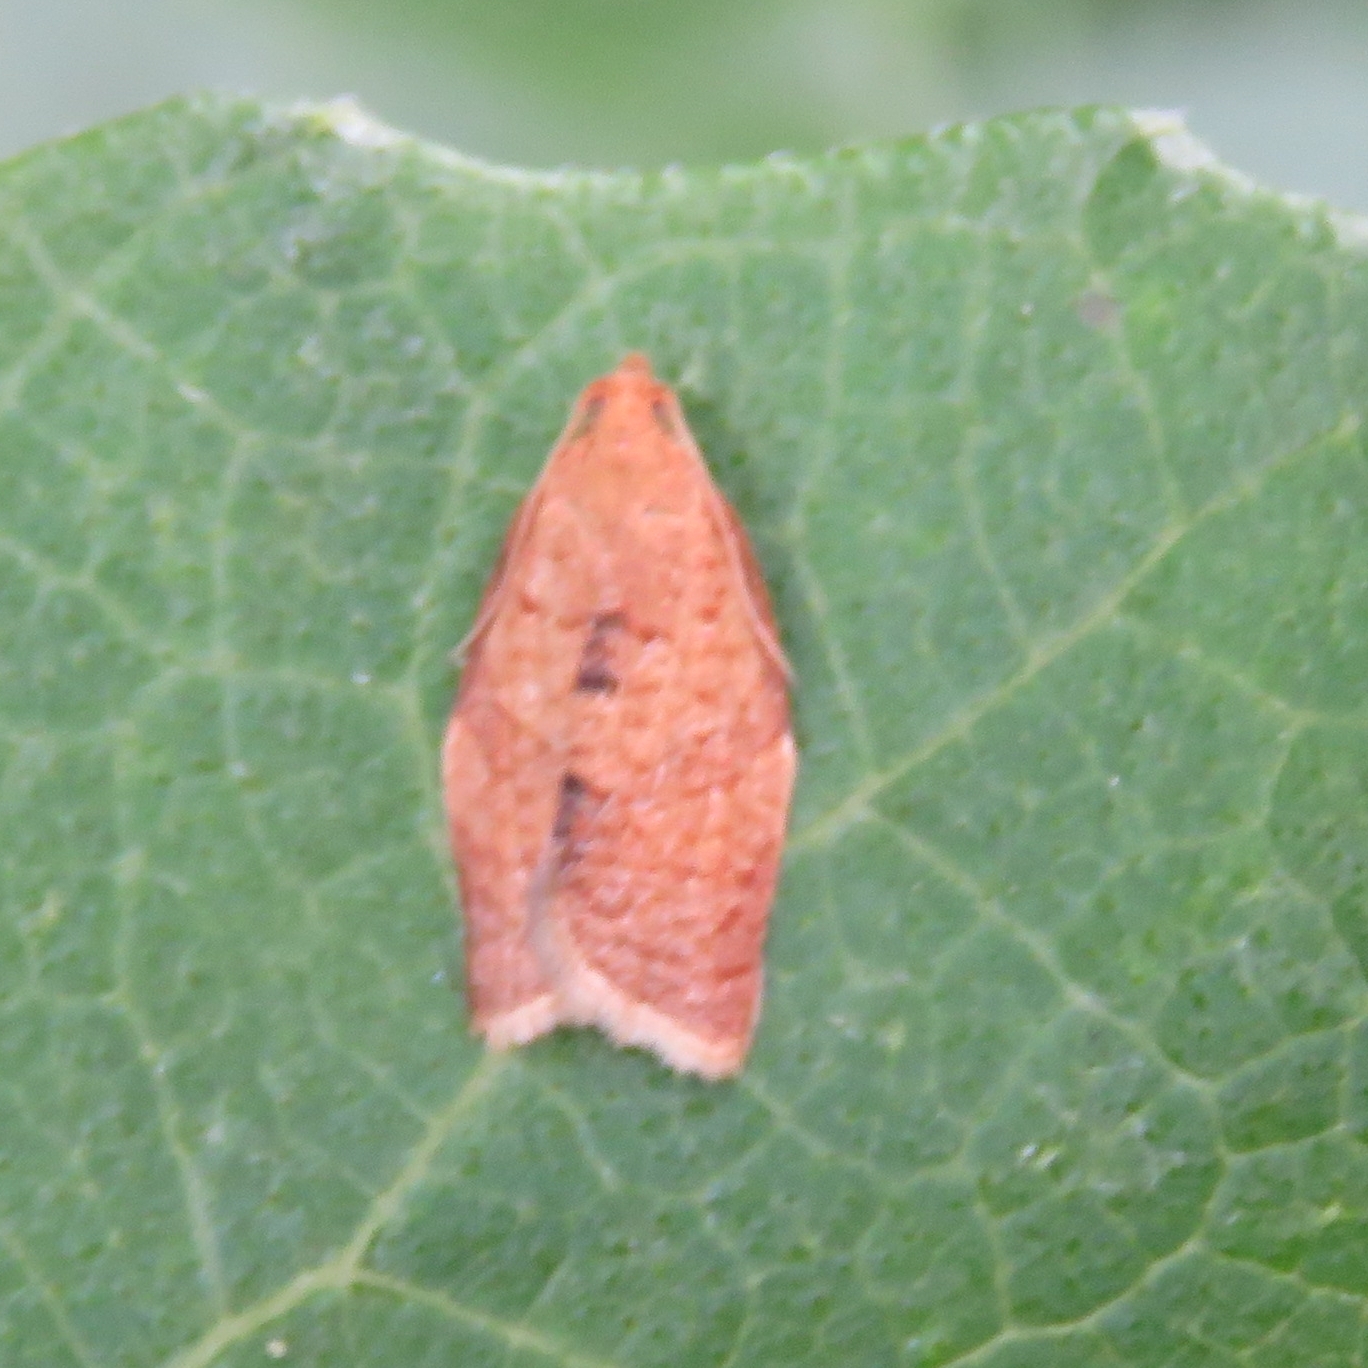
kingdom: Animalia
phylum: Arthropoda
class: Insecta
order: Lepidoptera
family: Tortricidae
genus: Clepsis
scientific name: Clepsis consimilana
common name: Privet tortrix
